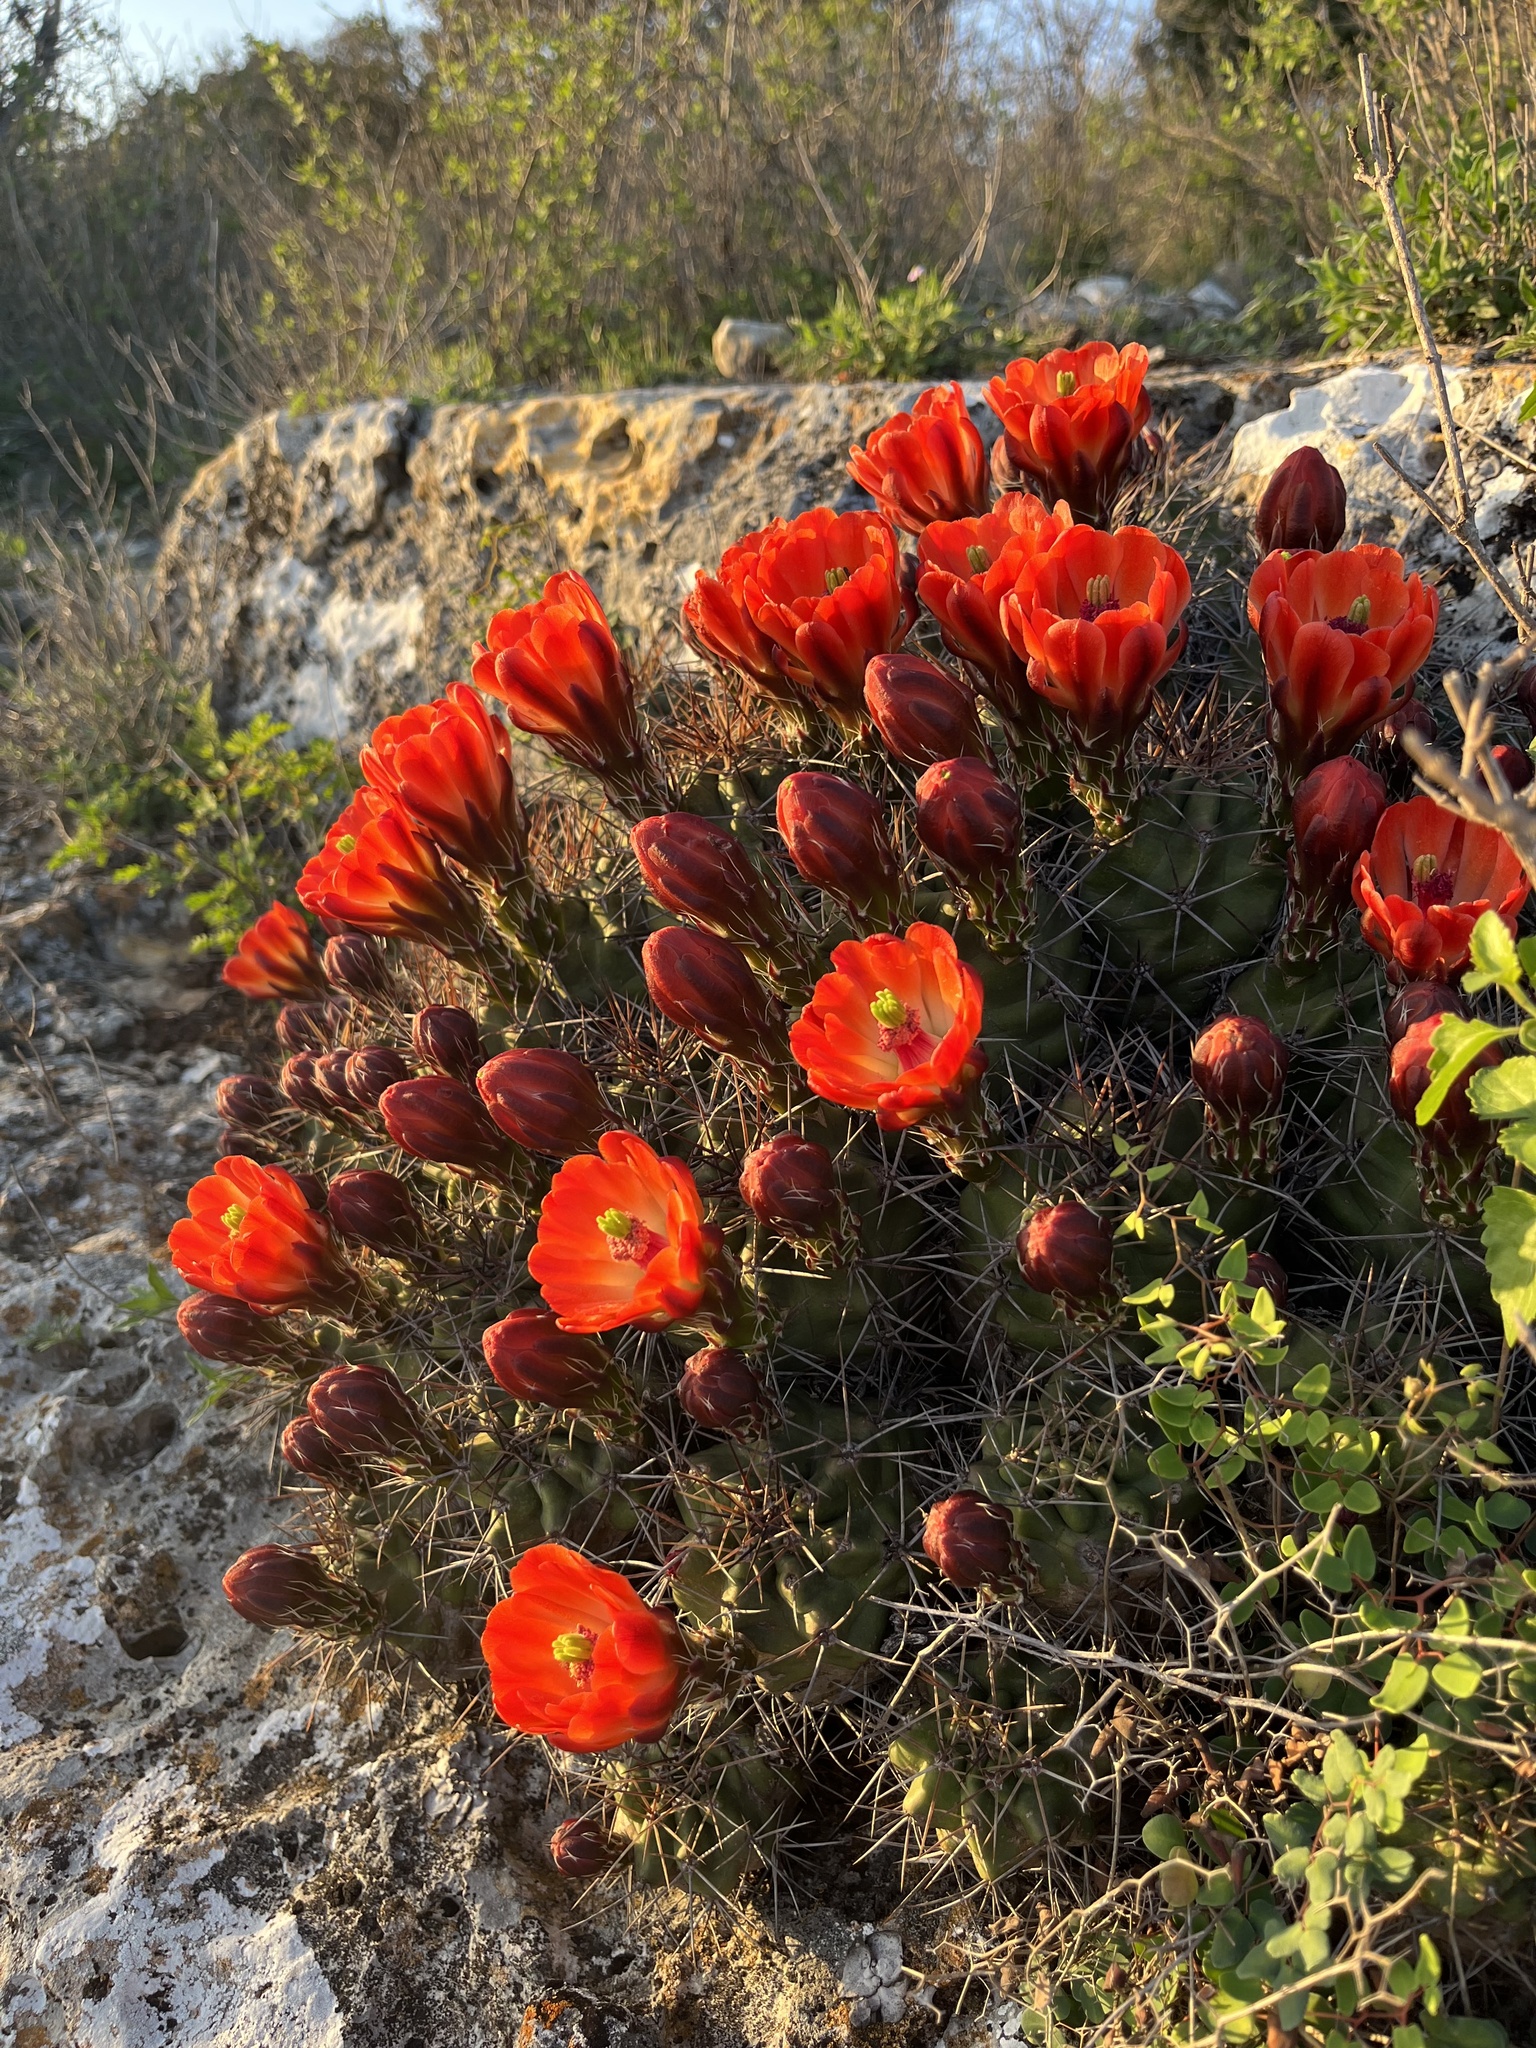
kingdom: Plantae
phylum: Tracheophyta
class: Magnoliopsida
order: Caryophyllales
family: Cactaceae
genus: Echinocereus
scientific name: Echinocereus coccineus
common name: Scarlet hedgehog cactus
